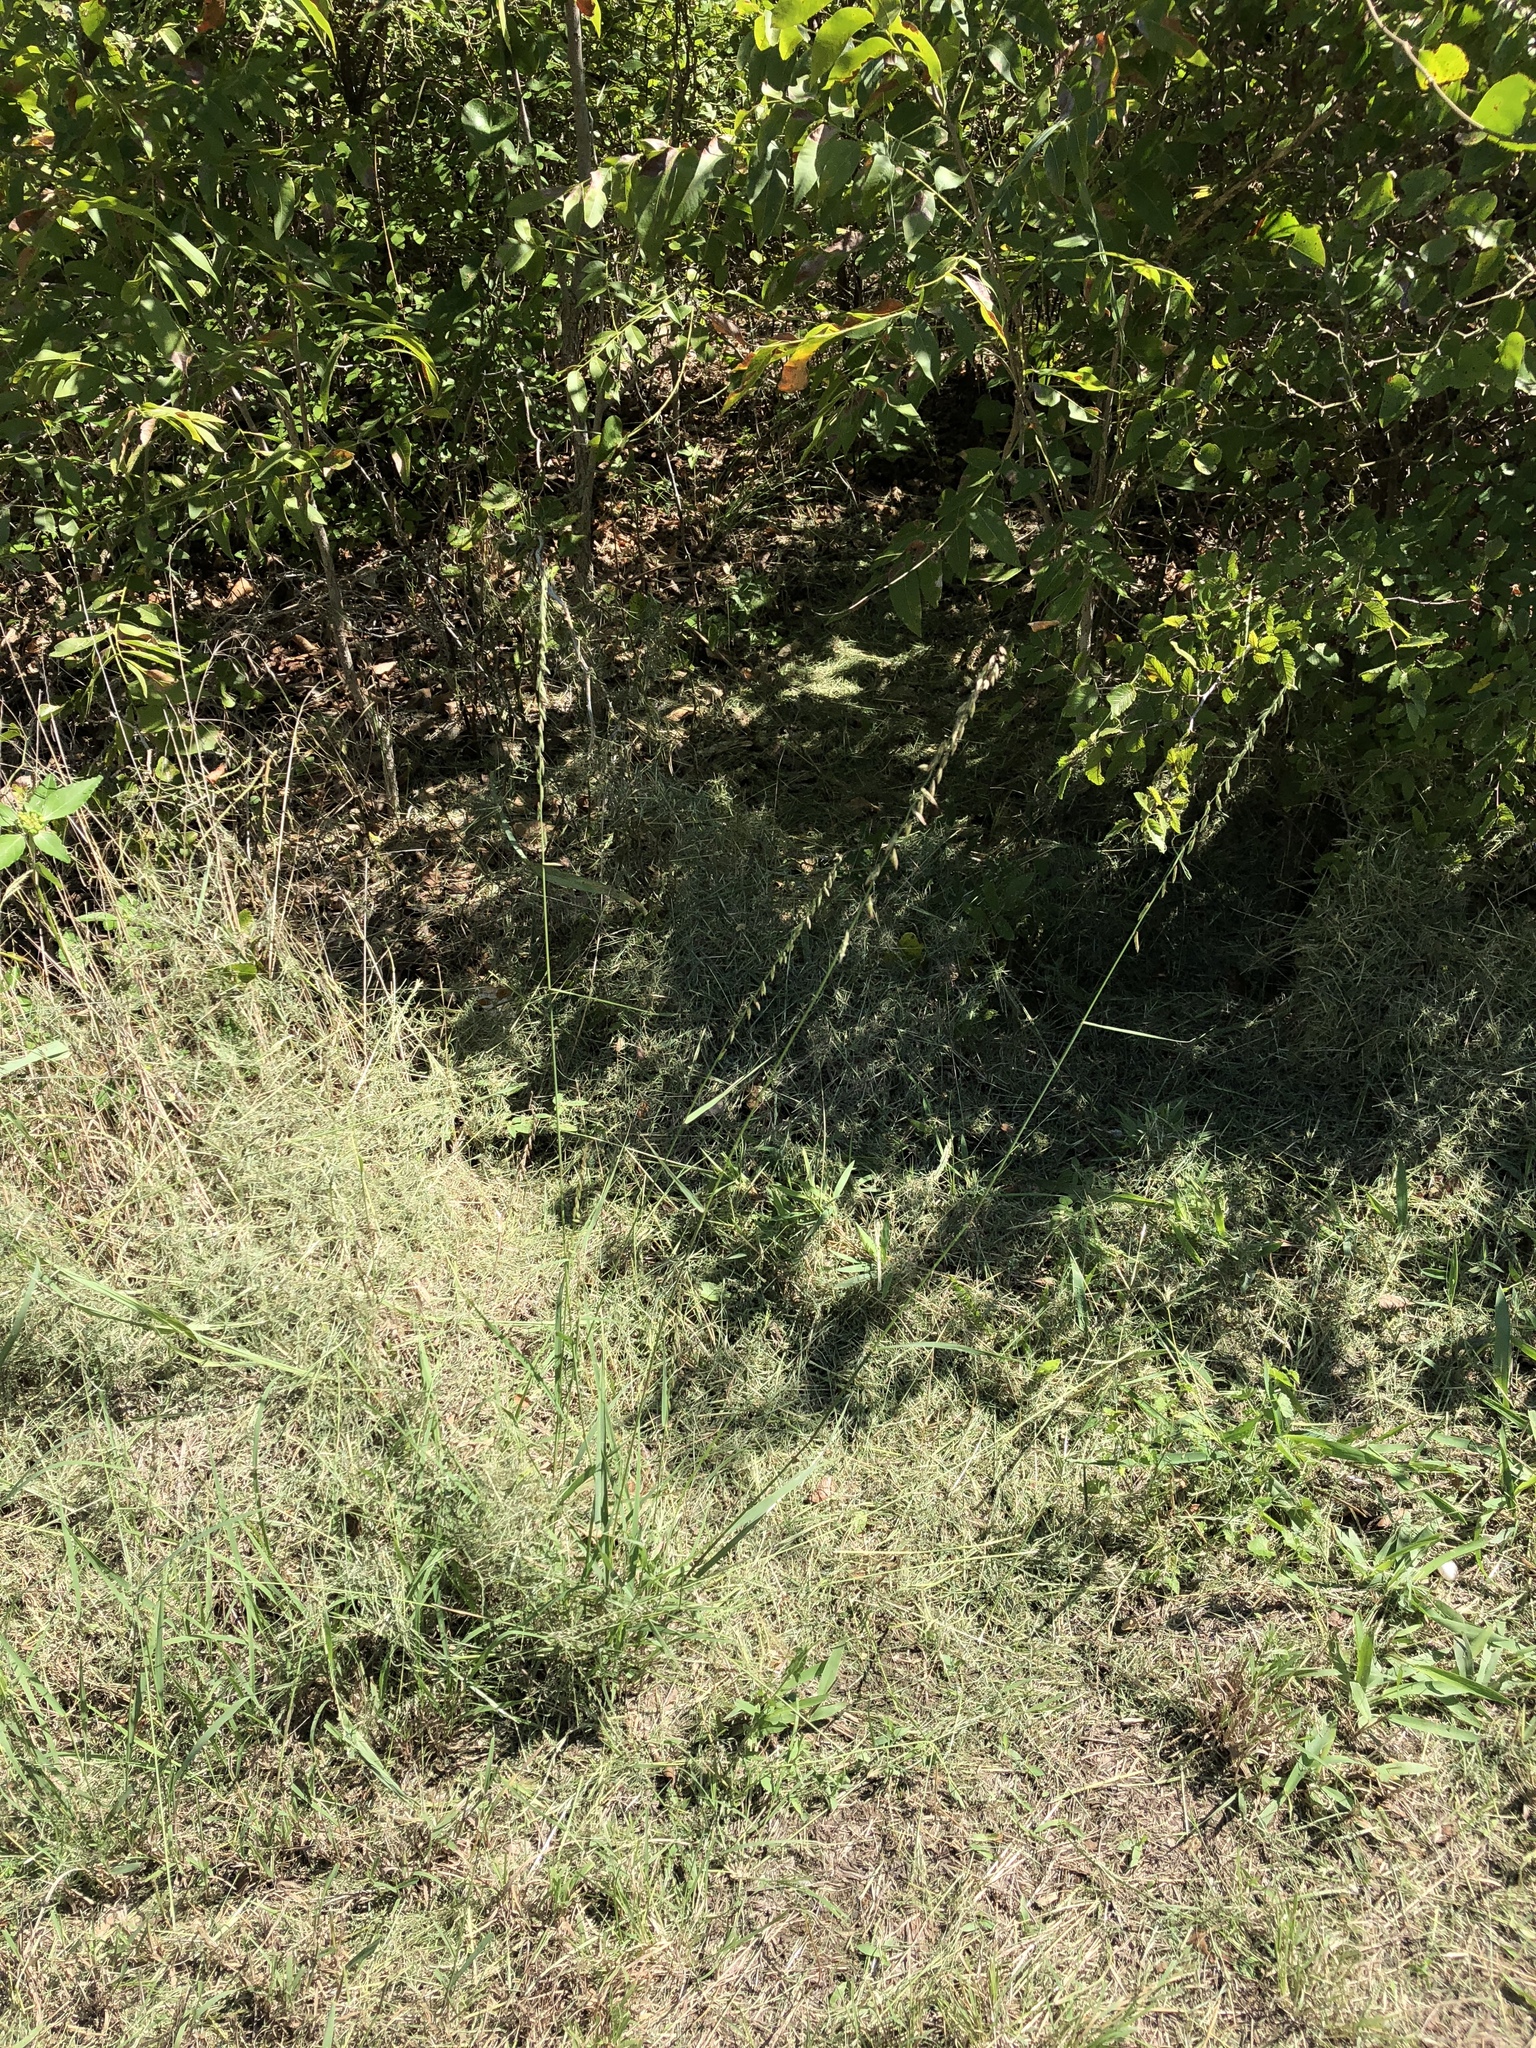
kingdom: Plantae
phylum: Tracheophyta
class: Liliopsida
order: Poales
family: Poaceae
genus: Bouteloua
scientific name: Bouteloua curtipendula
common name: Side-oats grama
